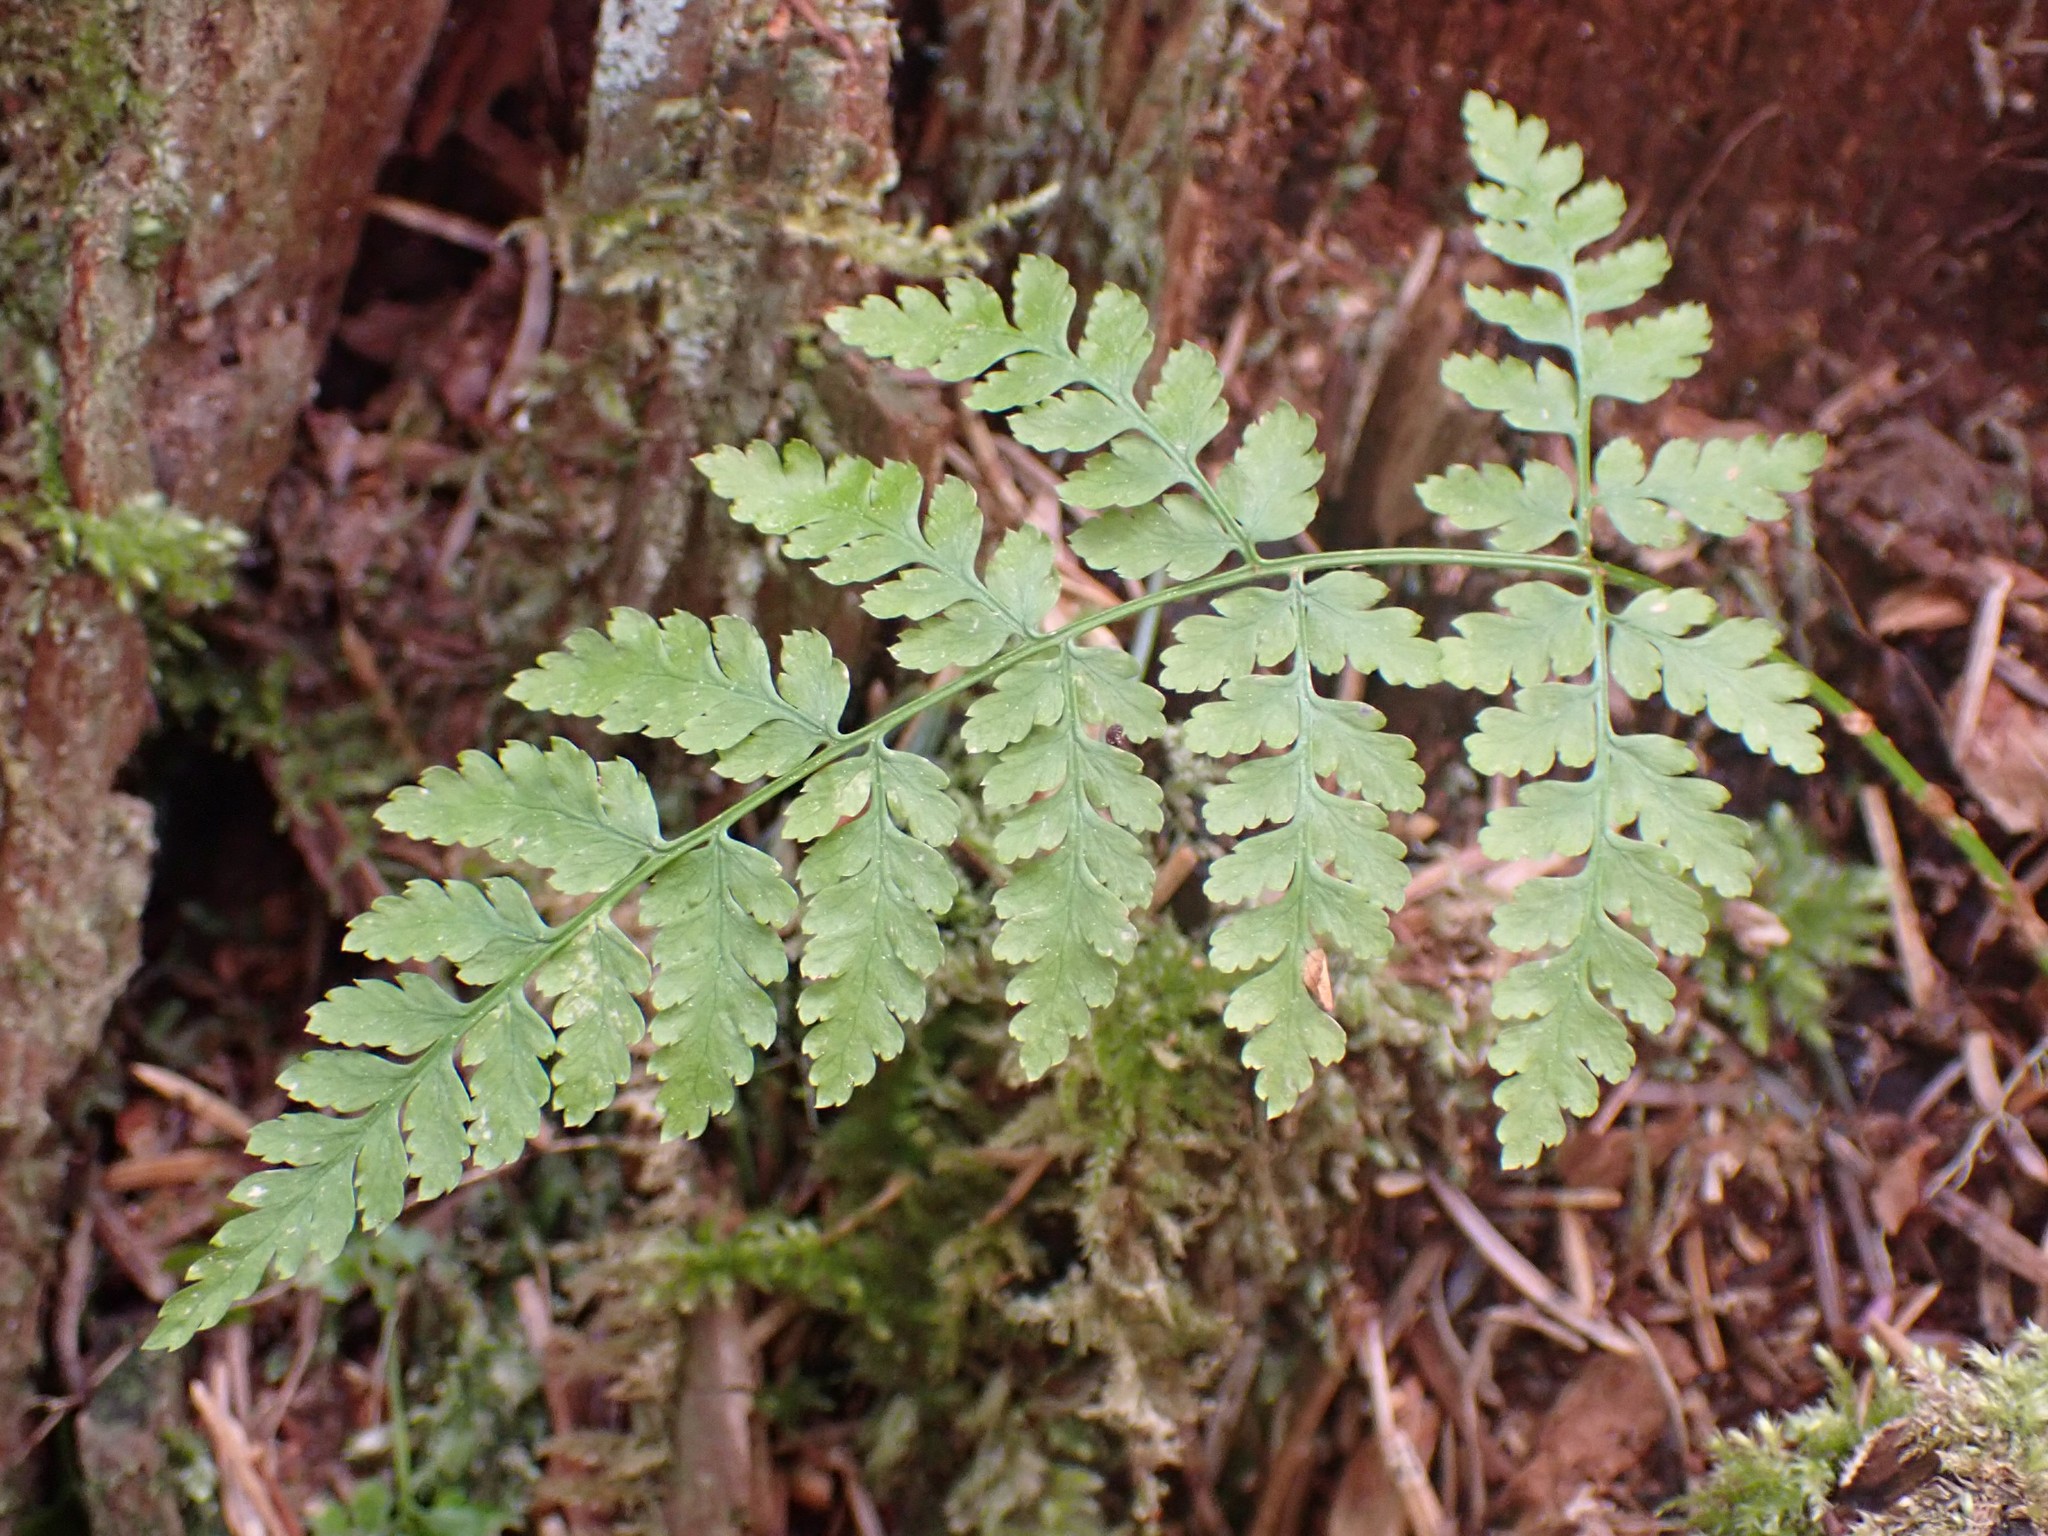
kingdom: Plantae
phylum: Tracheophyta
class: Polypodiopsida
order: Polypodiales
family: Dryopteridaceae
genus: Dryopteris
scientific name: Dryopteris expansa
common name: Northern buckler fern
